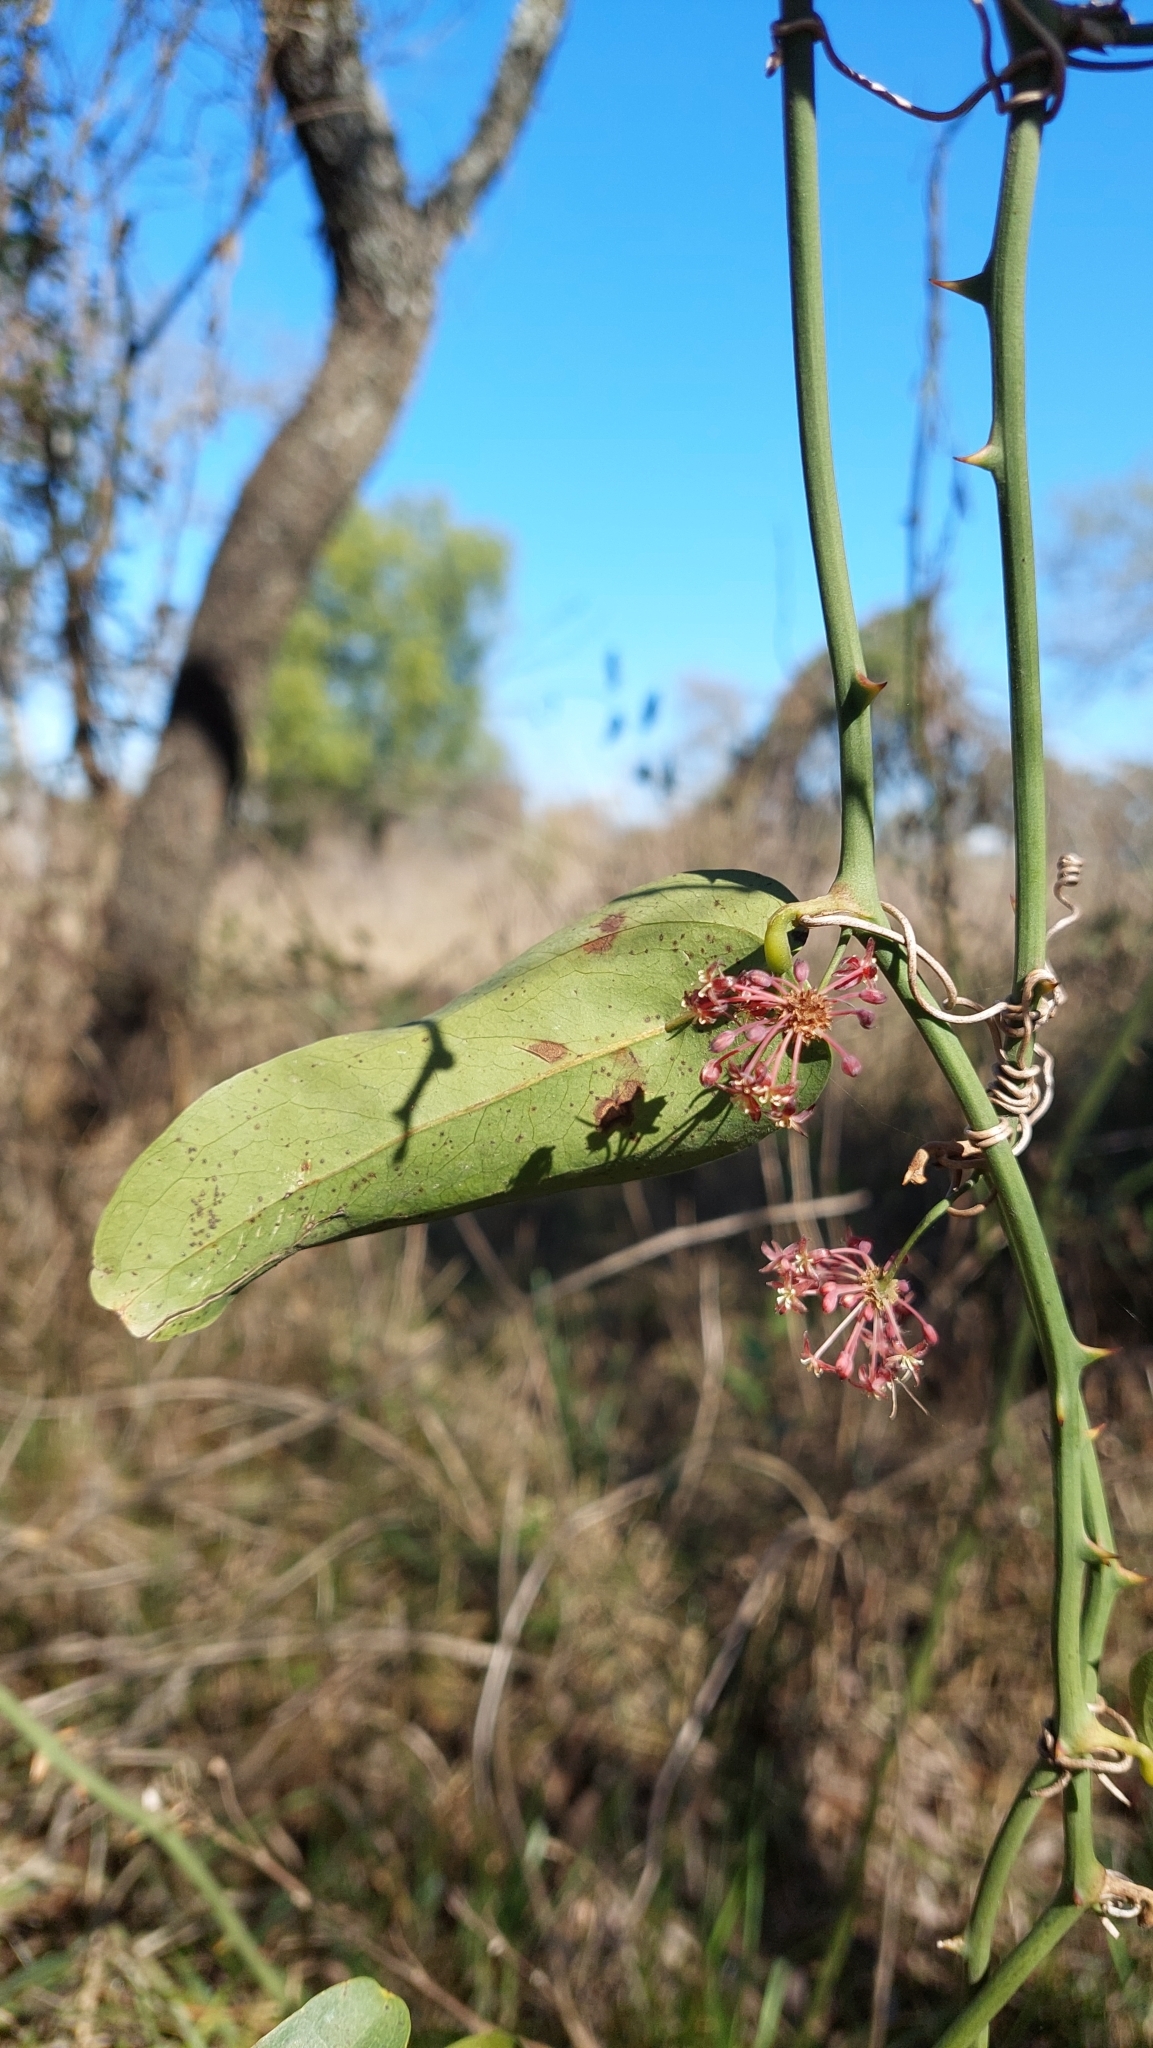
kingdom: Plantae
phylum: Tracheophyta
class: Liliopsida
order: Liliales
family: Smilacaceae
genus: Smilax
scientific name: Smilax campestris
